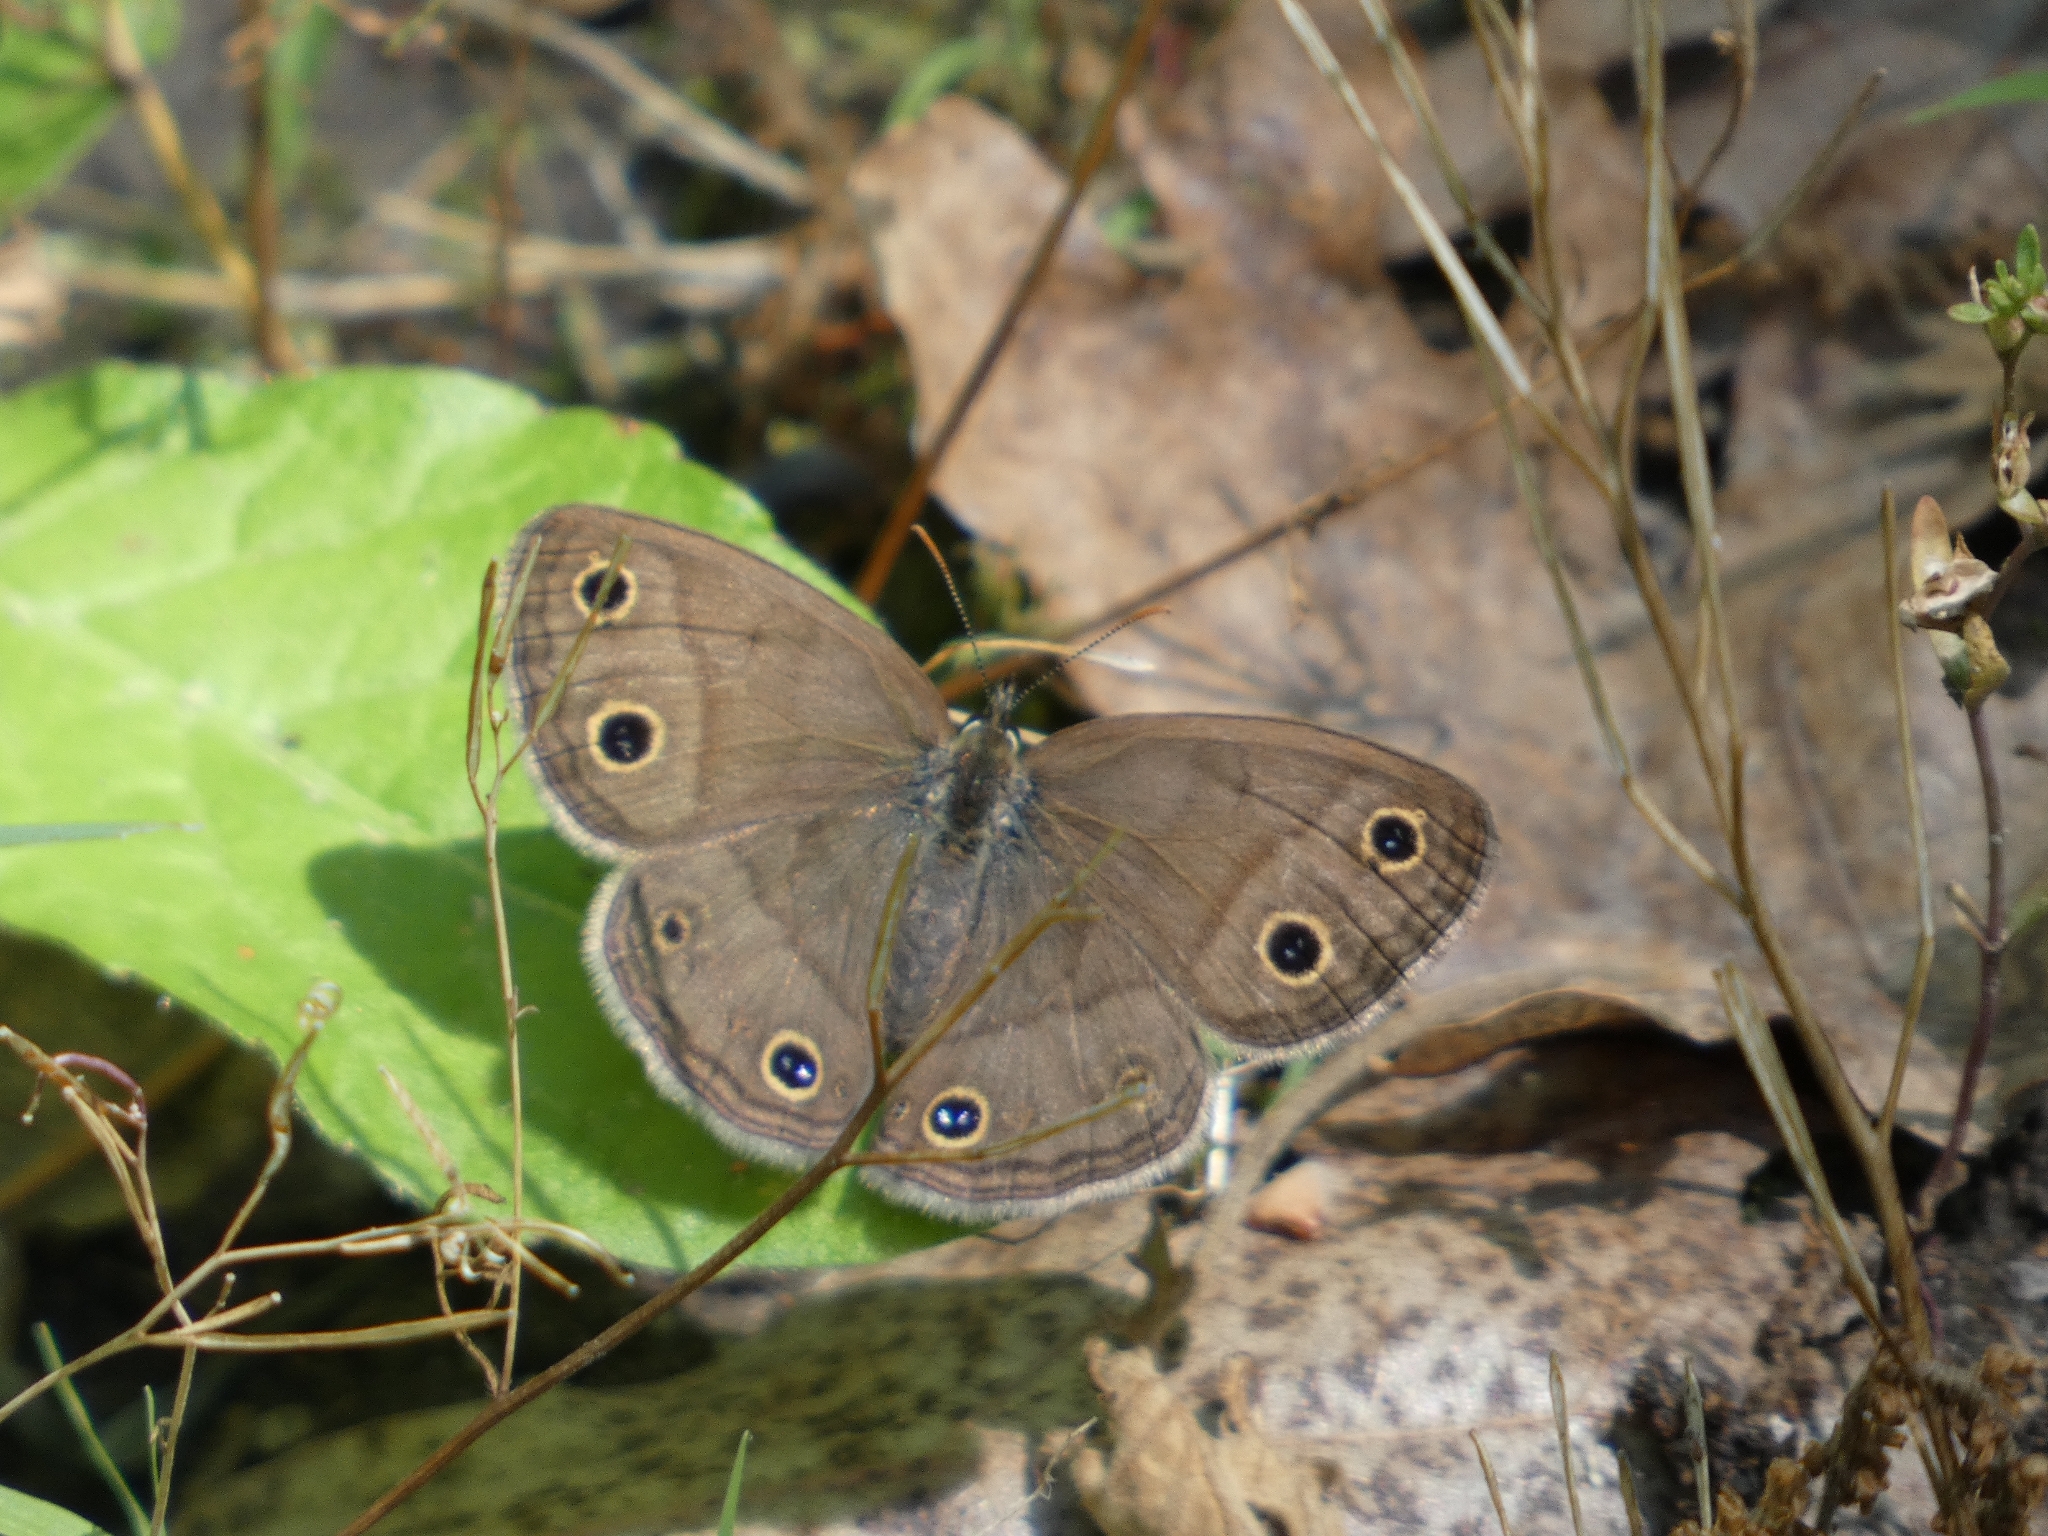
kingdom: Animalia
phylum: Arthropoda
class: Insecta
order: Lepidoptera
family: Nymphalidae
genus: Euptychia
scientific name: Euptychia cymela
